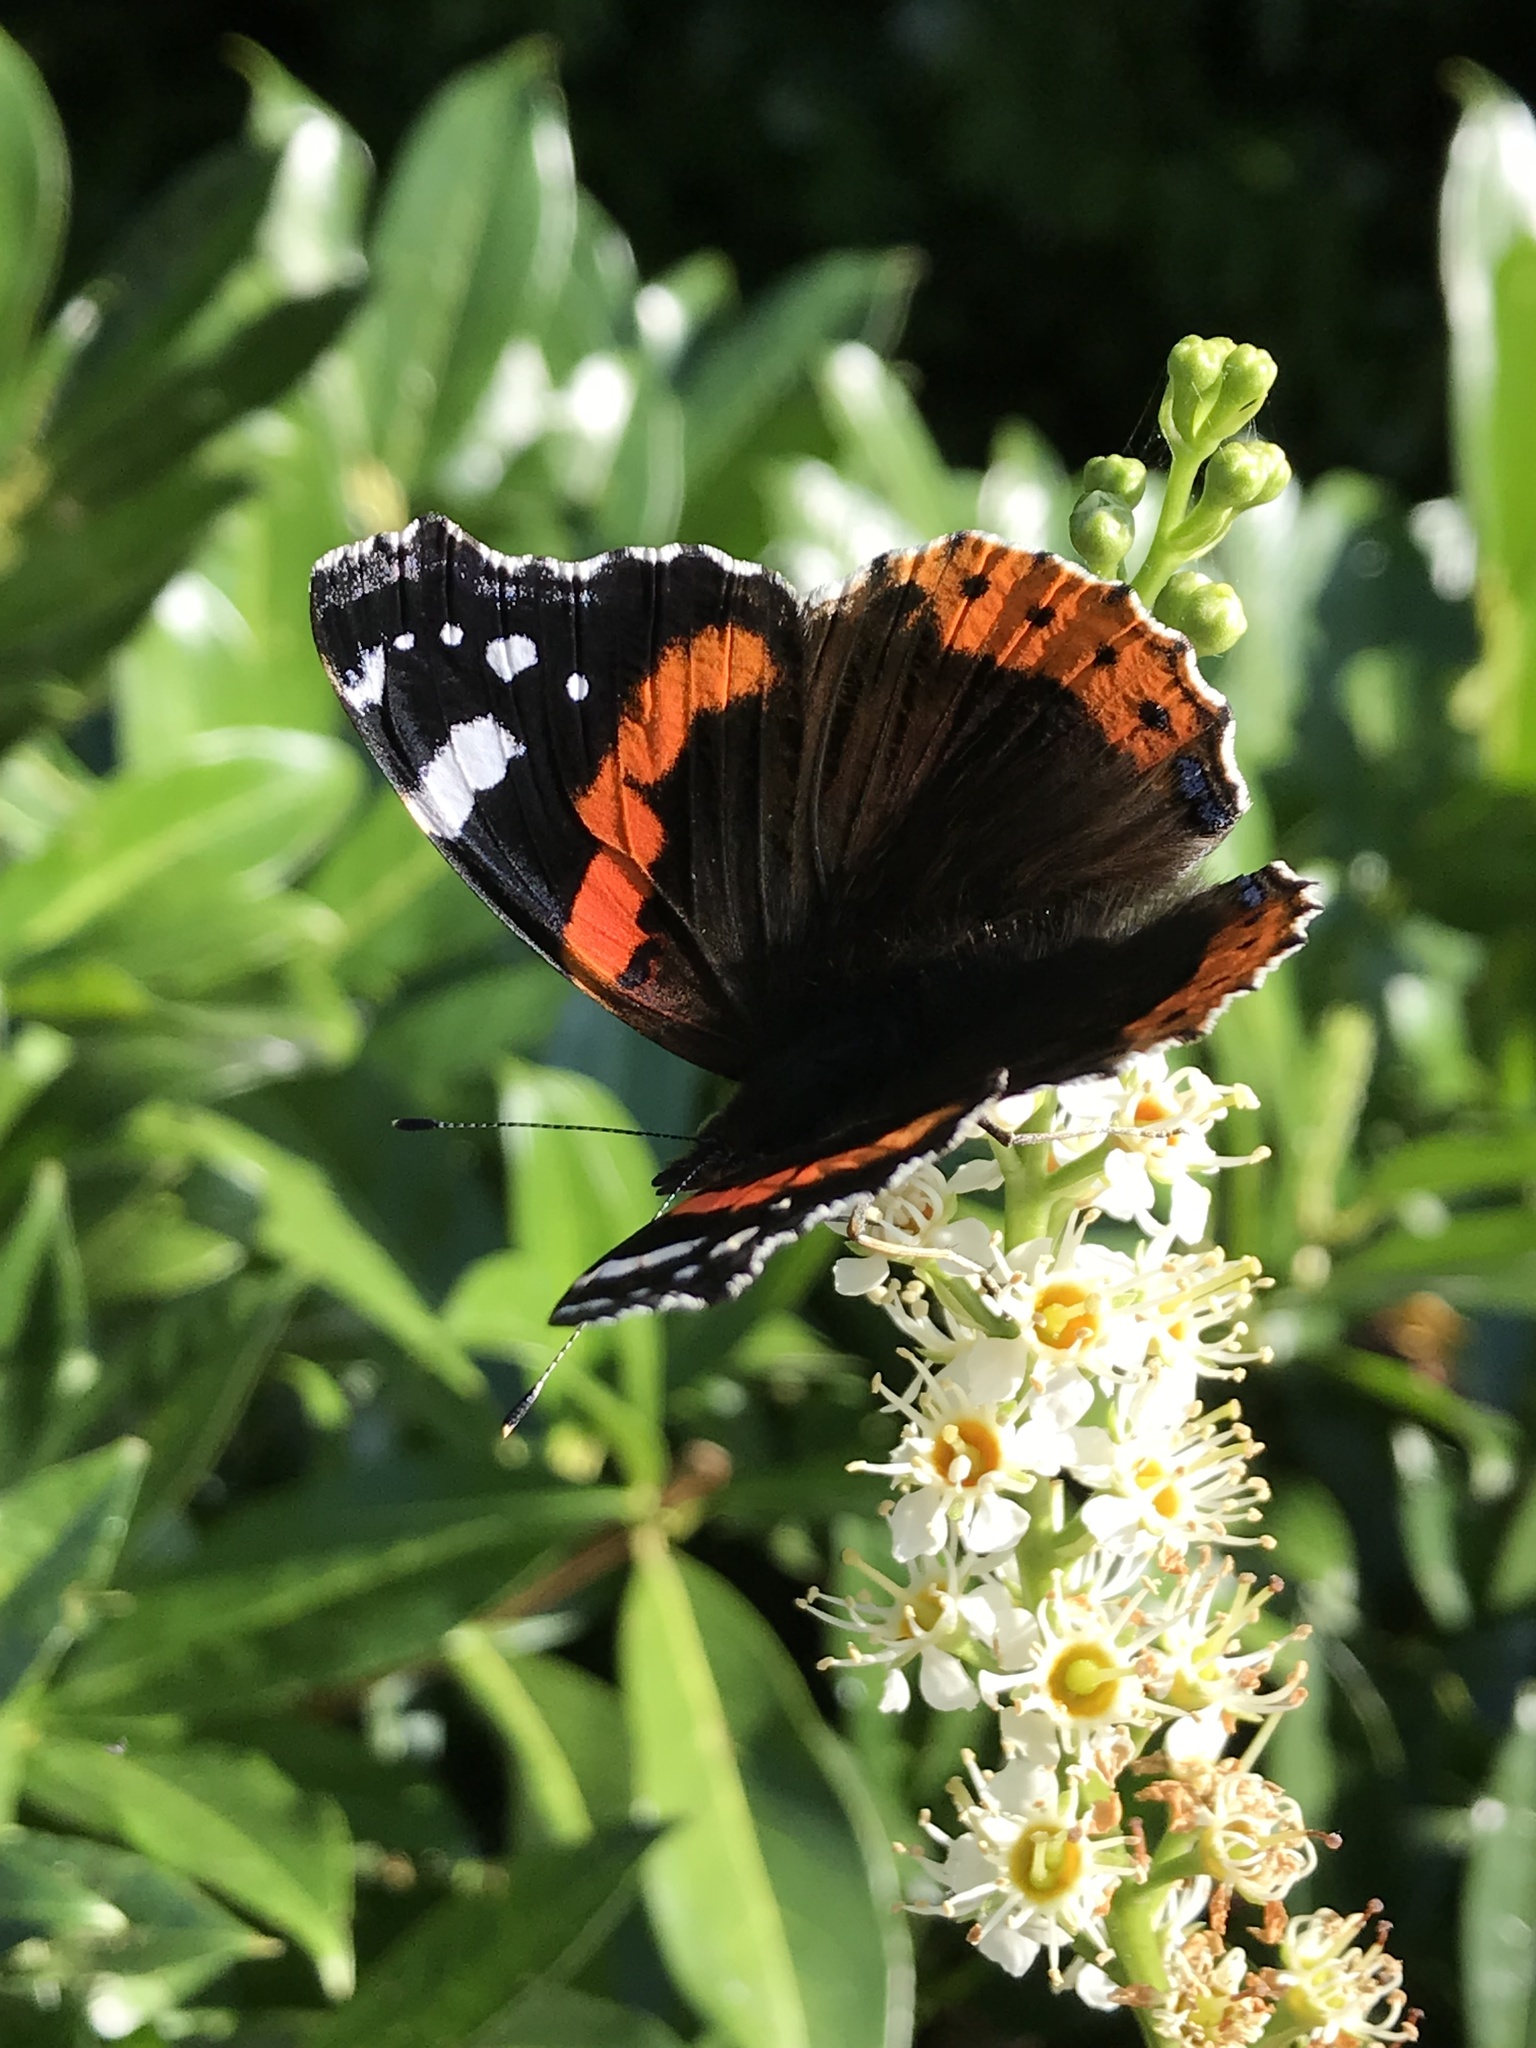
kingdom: Animalia
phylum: Arthropoda
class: Insecta
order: Lepidoptera
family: Nymphalidae
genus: Vanessa
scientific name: Vanessa atalanta
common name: Red admiral
